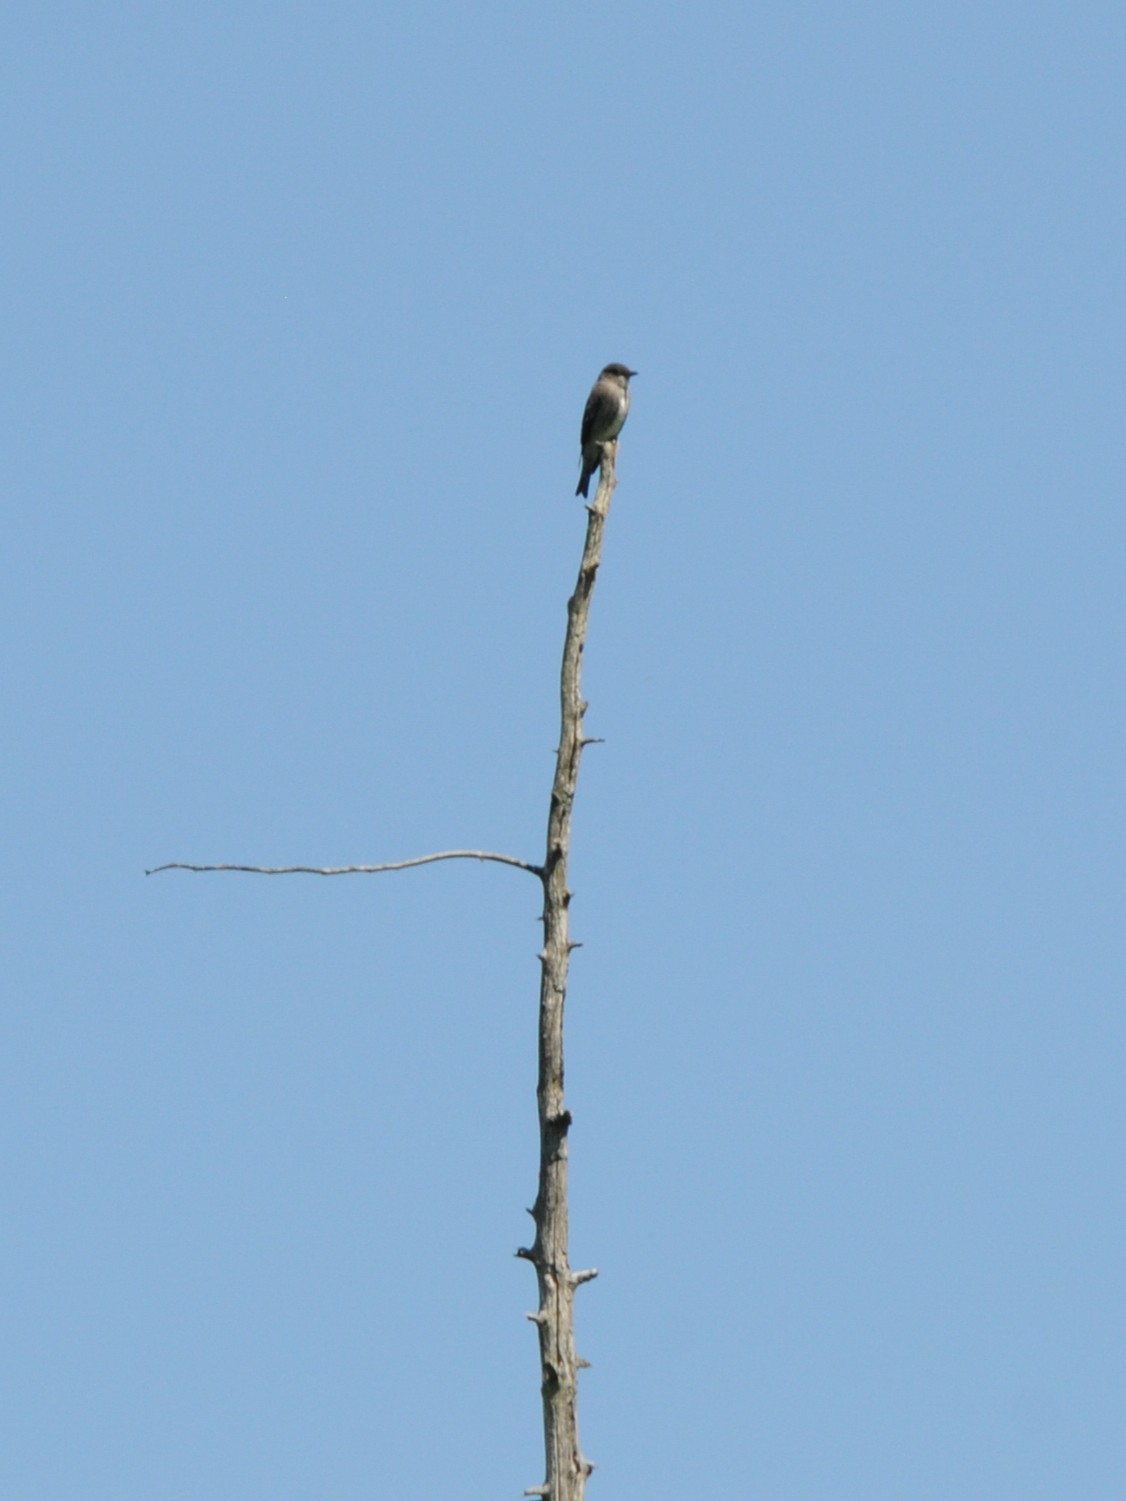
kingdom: Animalia
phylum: Chordata
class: Aves
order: Passeriformes
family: Tyrannidae
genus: Contopus
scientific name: Contopus cooperi
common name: Olive-sided flycatcher
